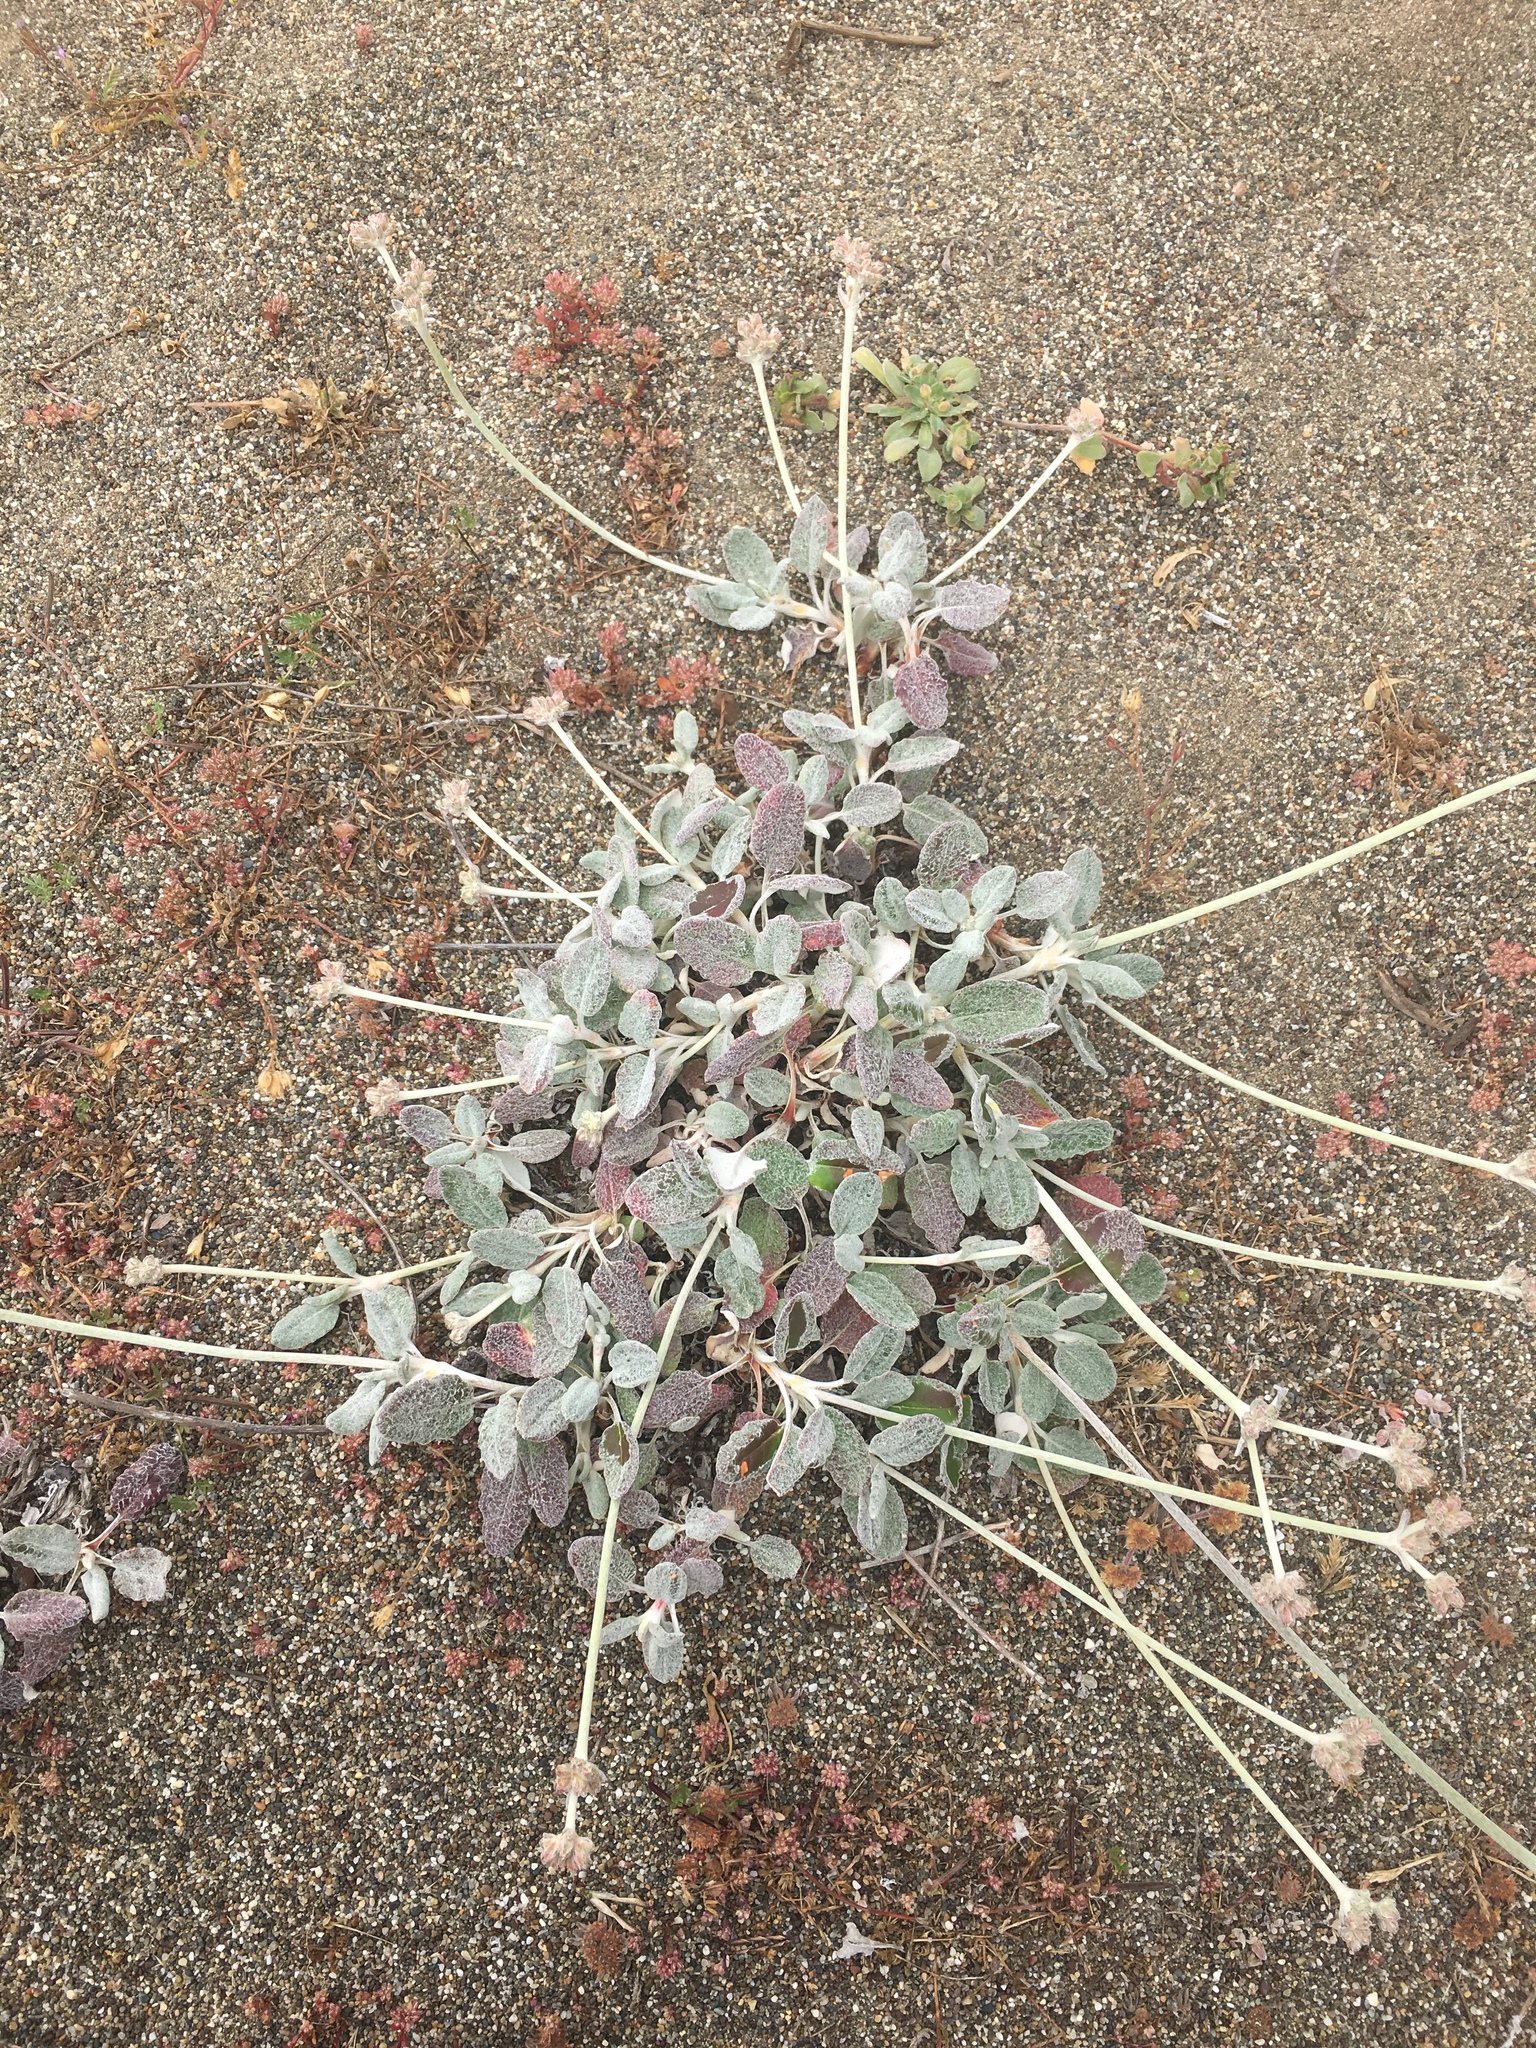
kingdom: Plantae
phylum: Tracheophyta
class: Magnoliopsida
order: Caryophyllales
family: Polygonaceae
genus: Eriogonum
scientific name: Eriogonum latifolium
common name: Seaside wild buckwheat
